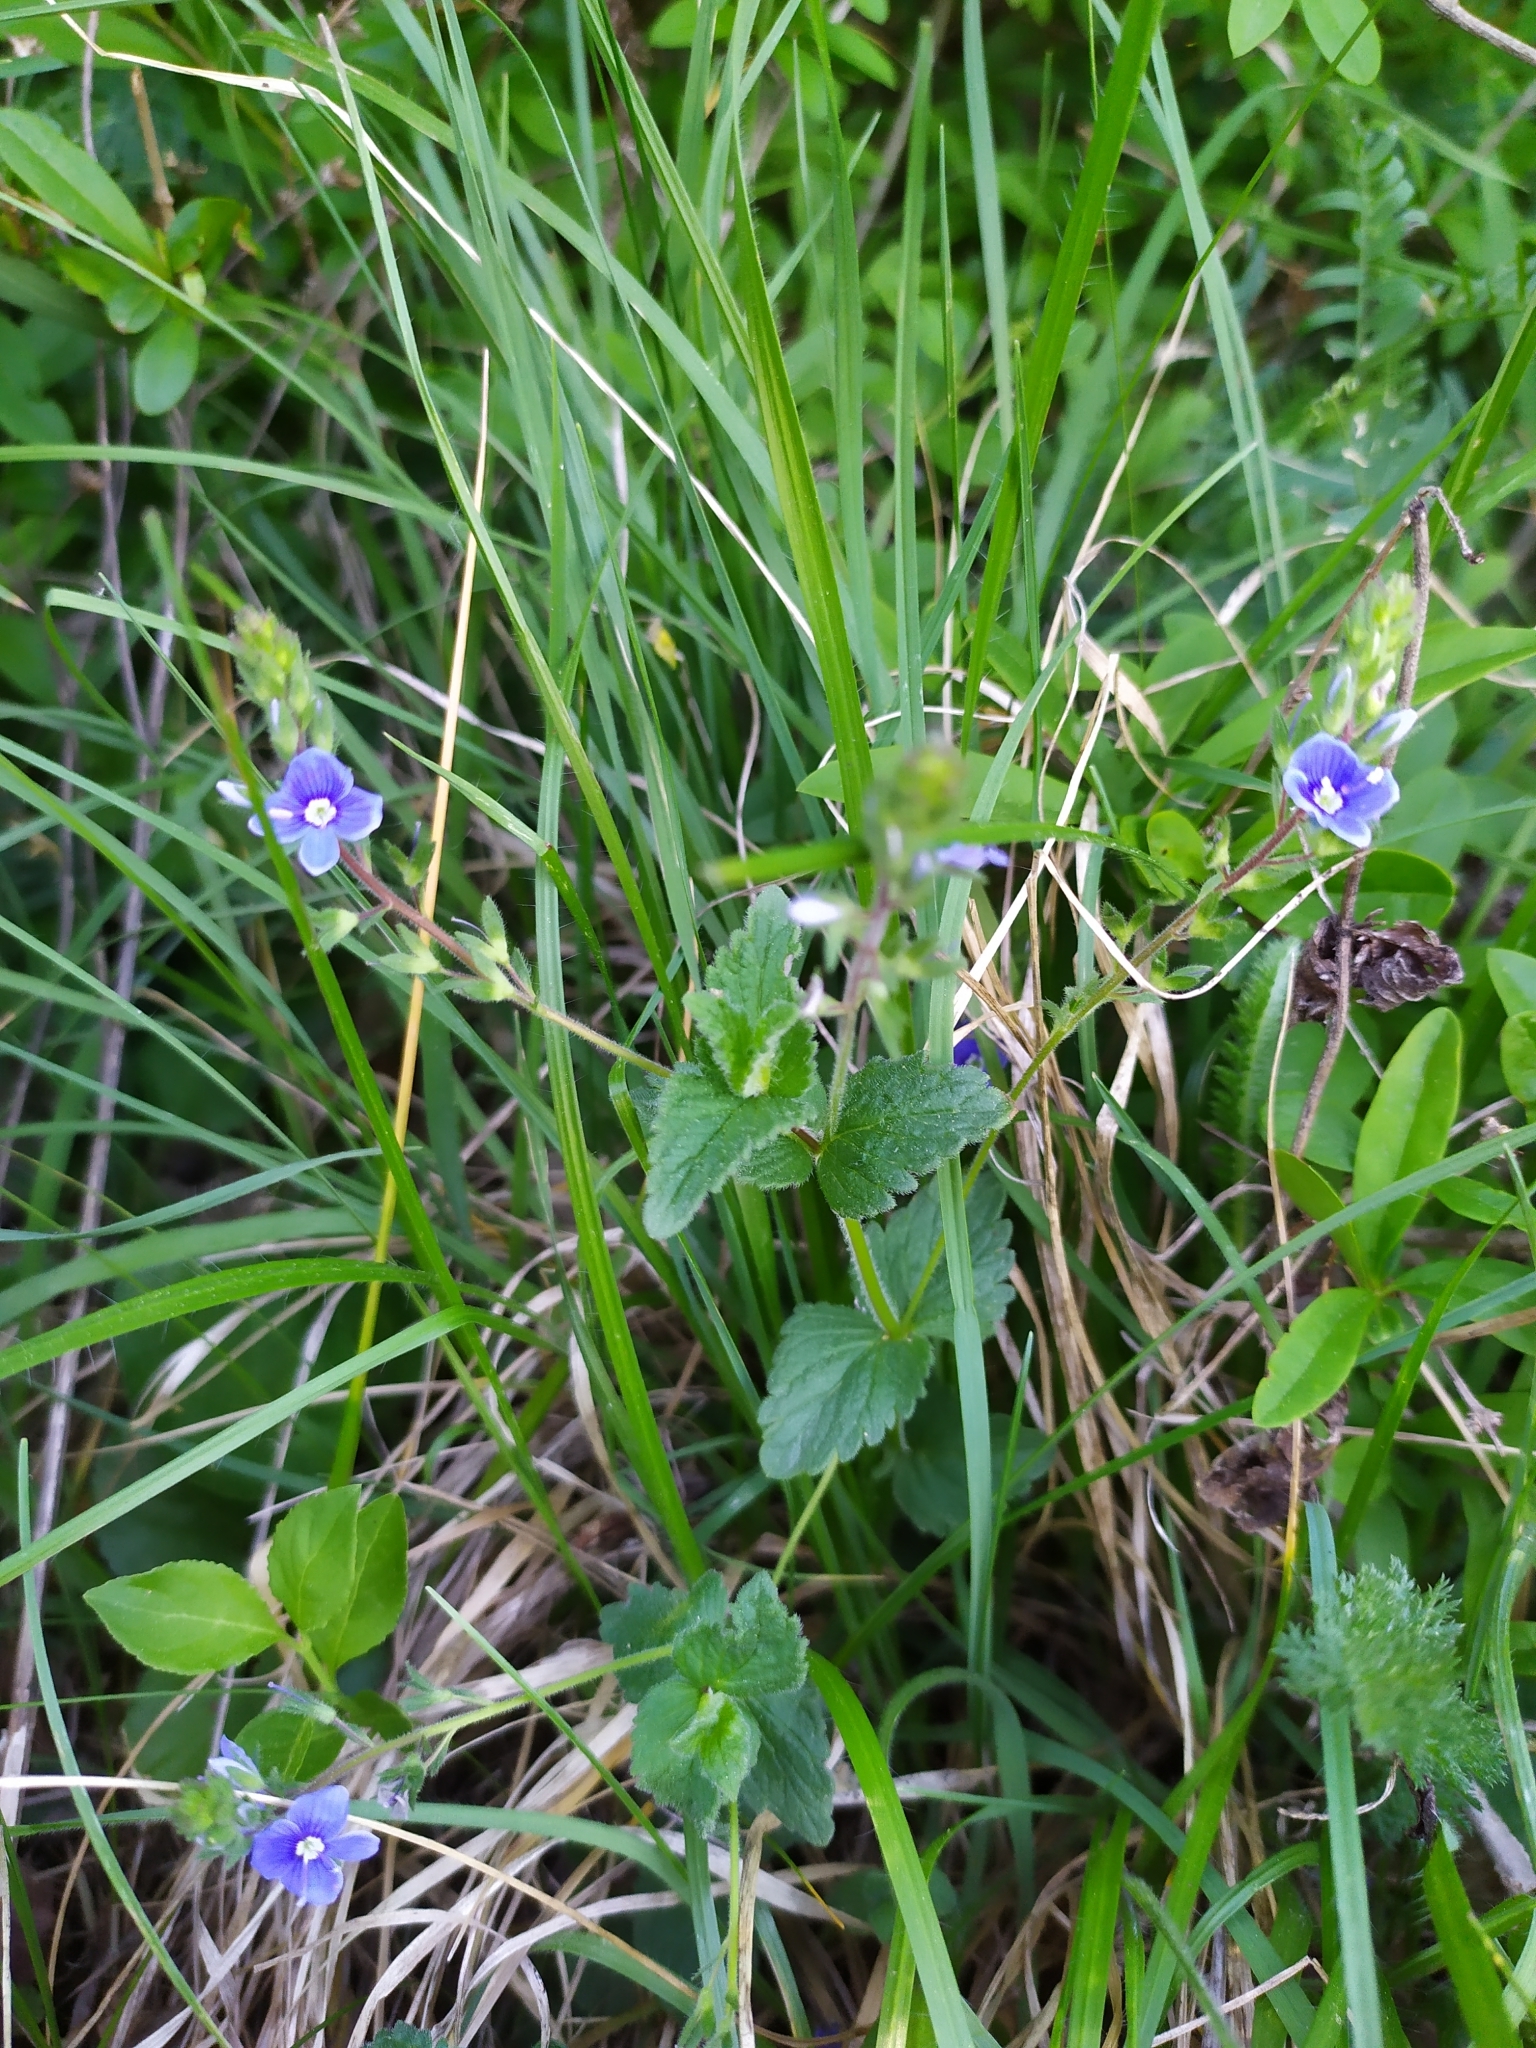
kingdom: Plantae
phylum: Tracheophyta
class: Magnoliopsida
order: Lamiales
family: Plantaginaceae
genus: Veronica
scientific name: Veronica chamaedrys
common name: Germander speedwell
